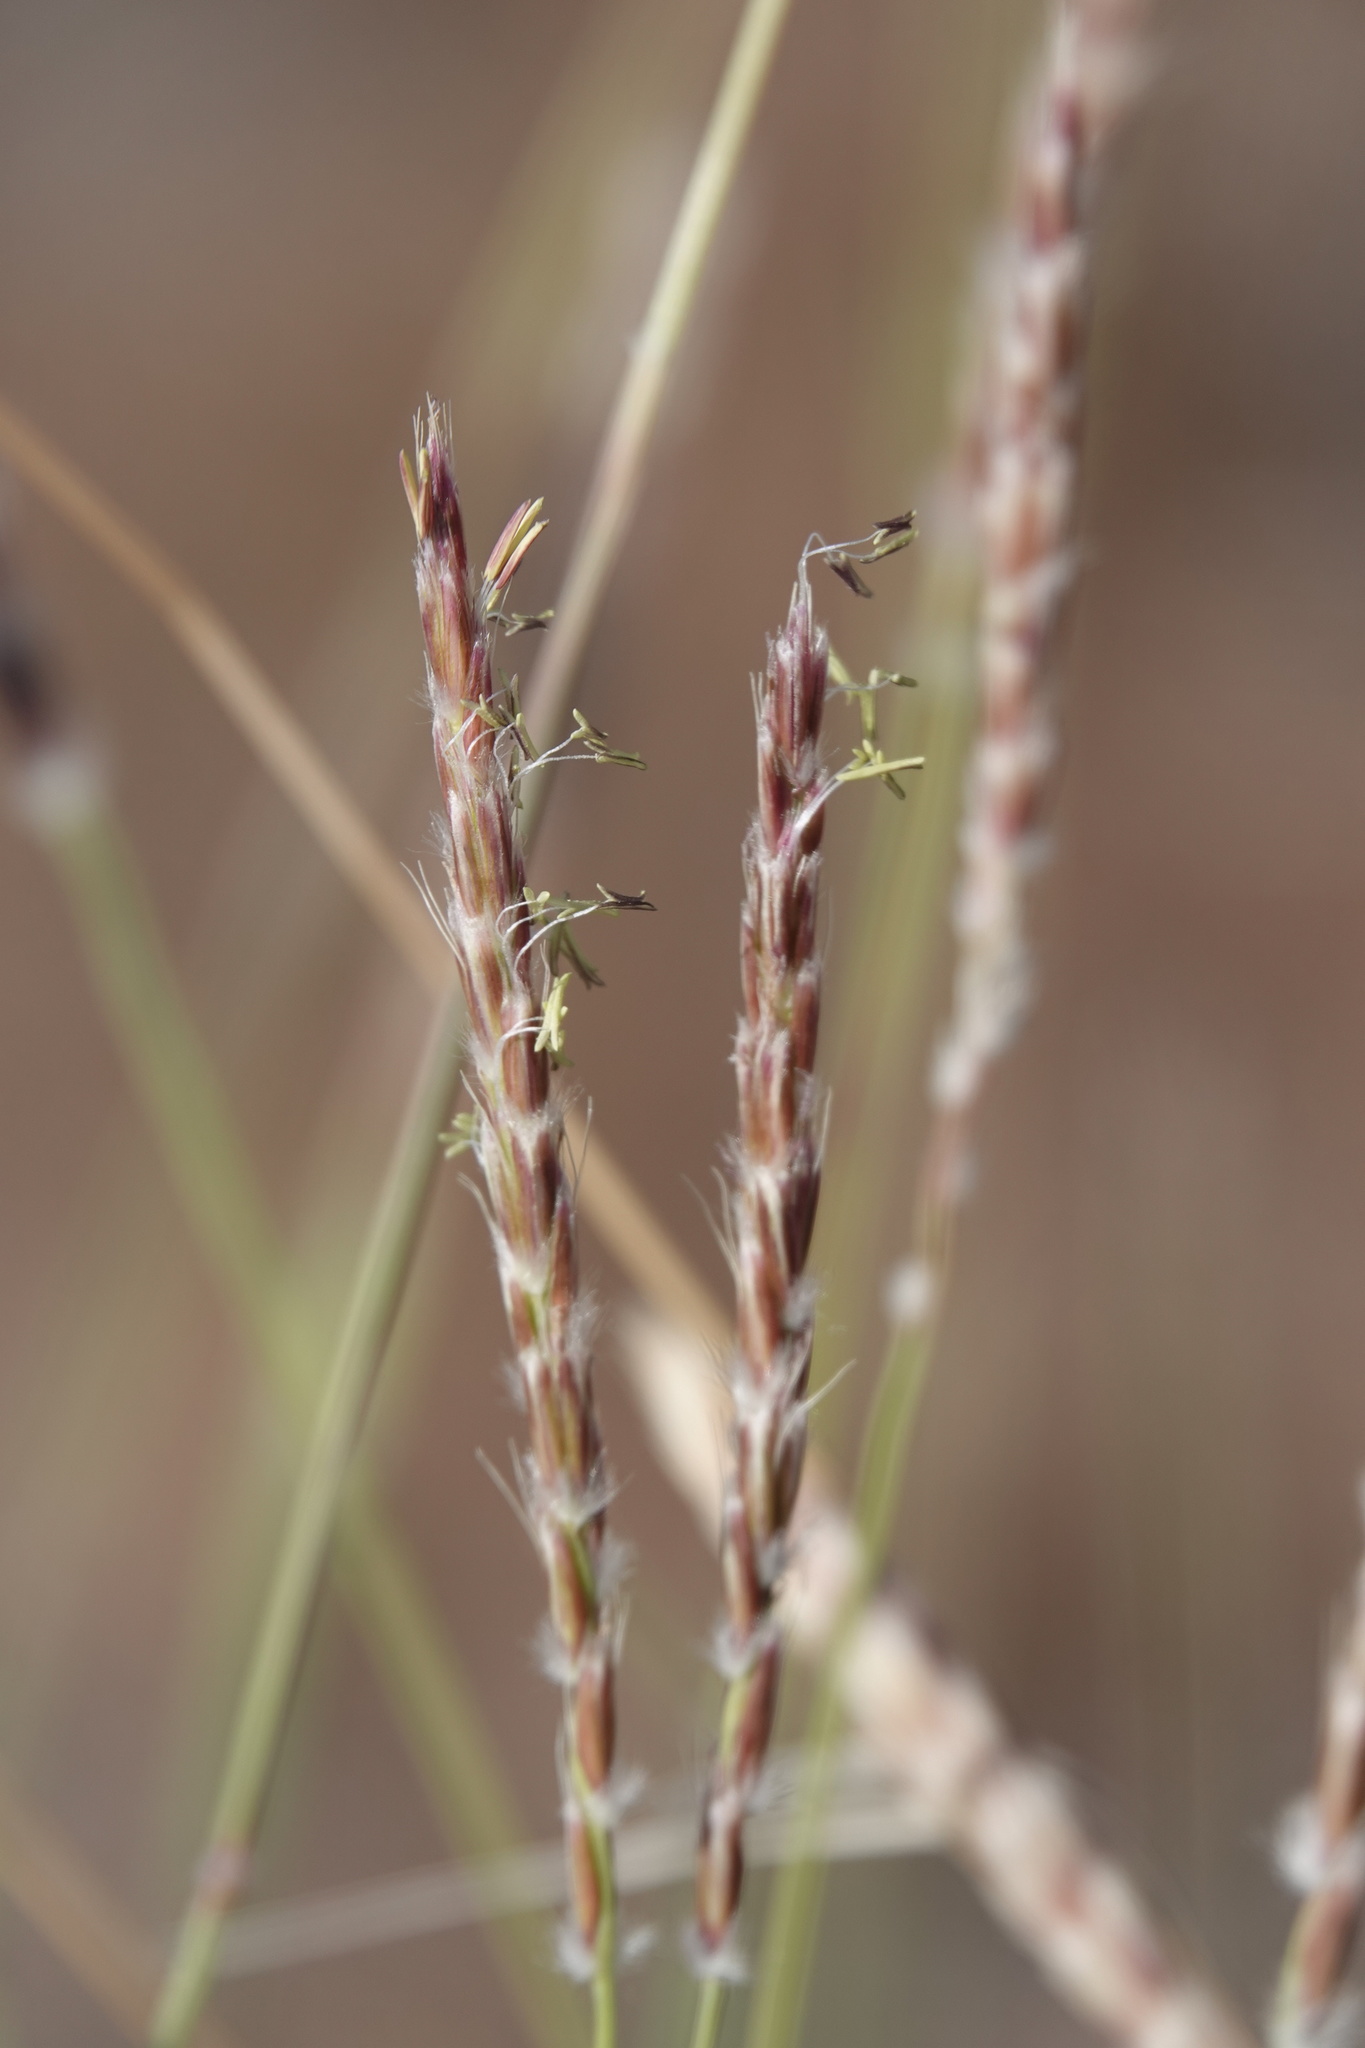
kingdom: Plantae
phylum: Tracheophyta
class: Liliopsida
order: Poales
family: Poaceae
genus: Hilaria
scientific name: Hilaria rigida
